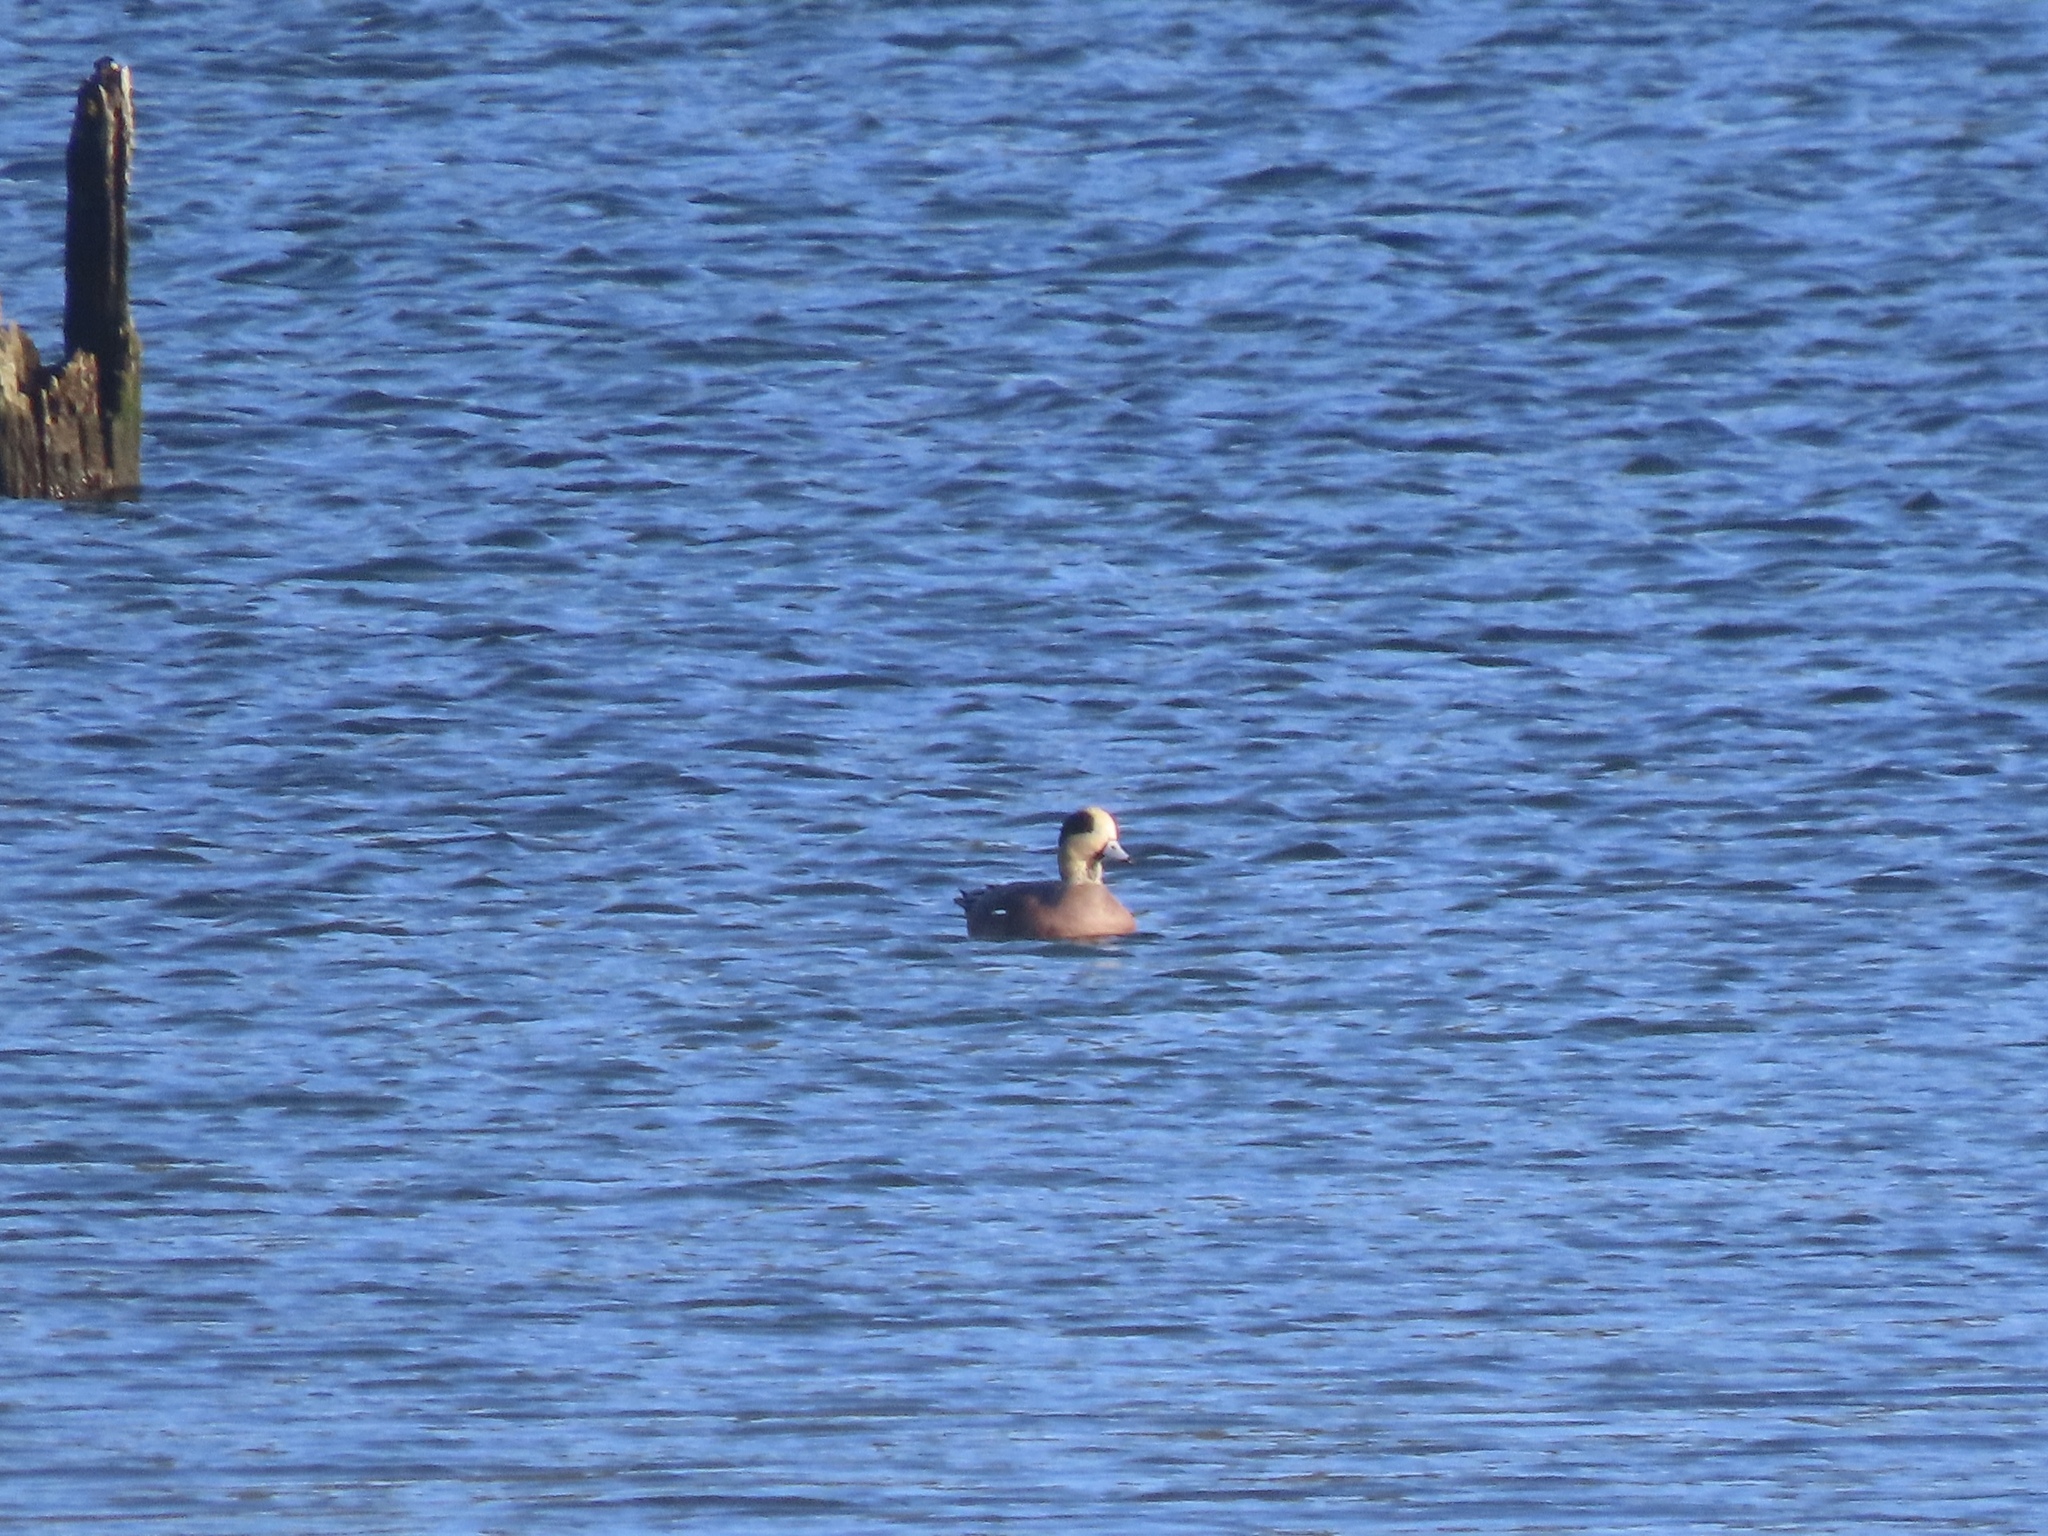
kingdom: Animalia
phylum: Chordata
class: Aves
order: Anseriformes
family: Anatidae
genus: Mareca
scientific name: Mareca americana
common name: American wigeon
